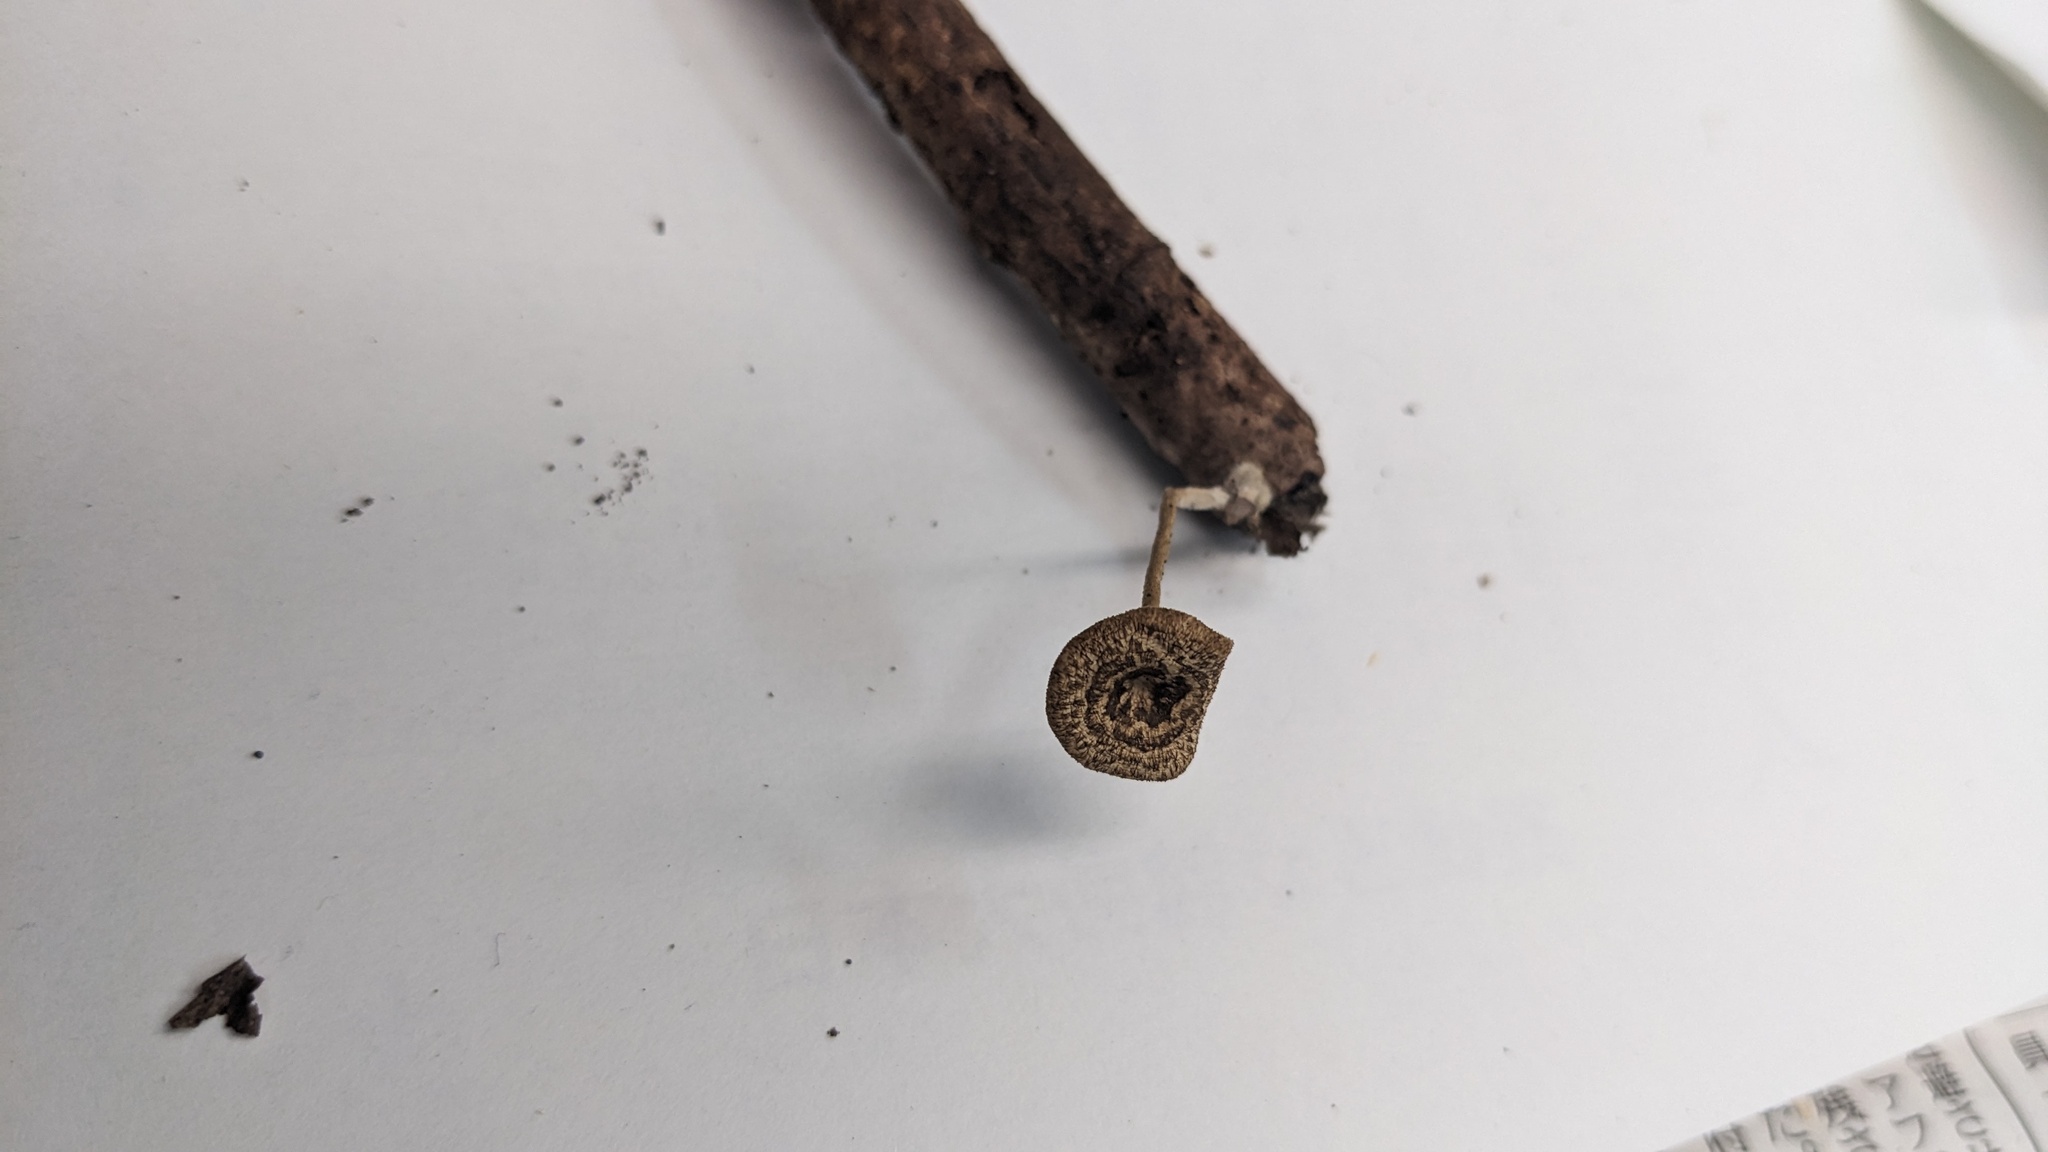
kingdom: Fungi
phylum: Basidiomycota
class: Agaricomycetes
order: Polyporales
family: Polyporaceae
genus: Lentinus
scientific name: Lentinus arcularius
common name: Spring polypore
